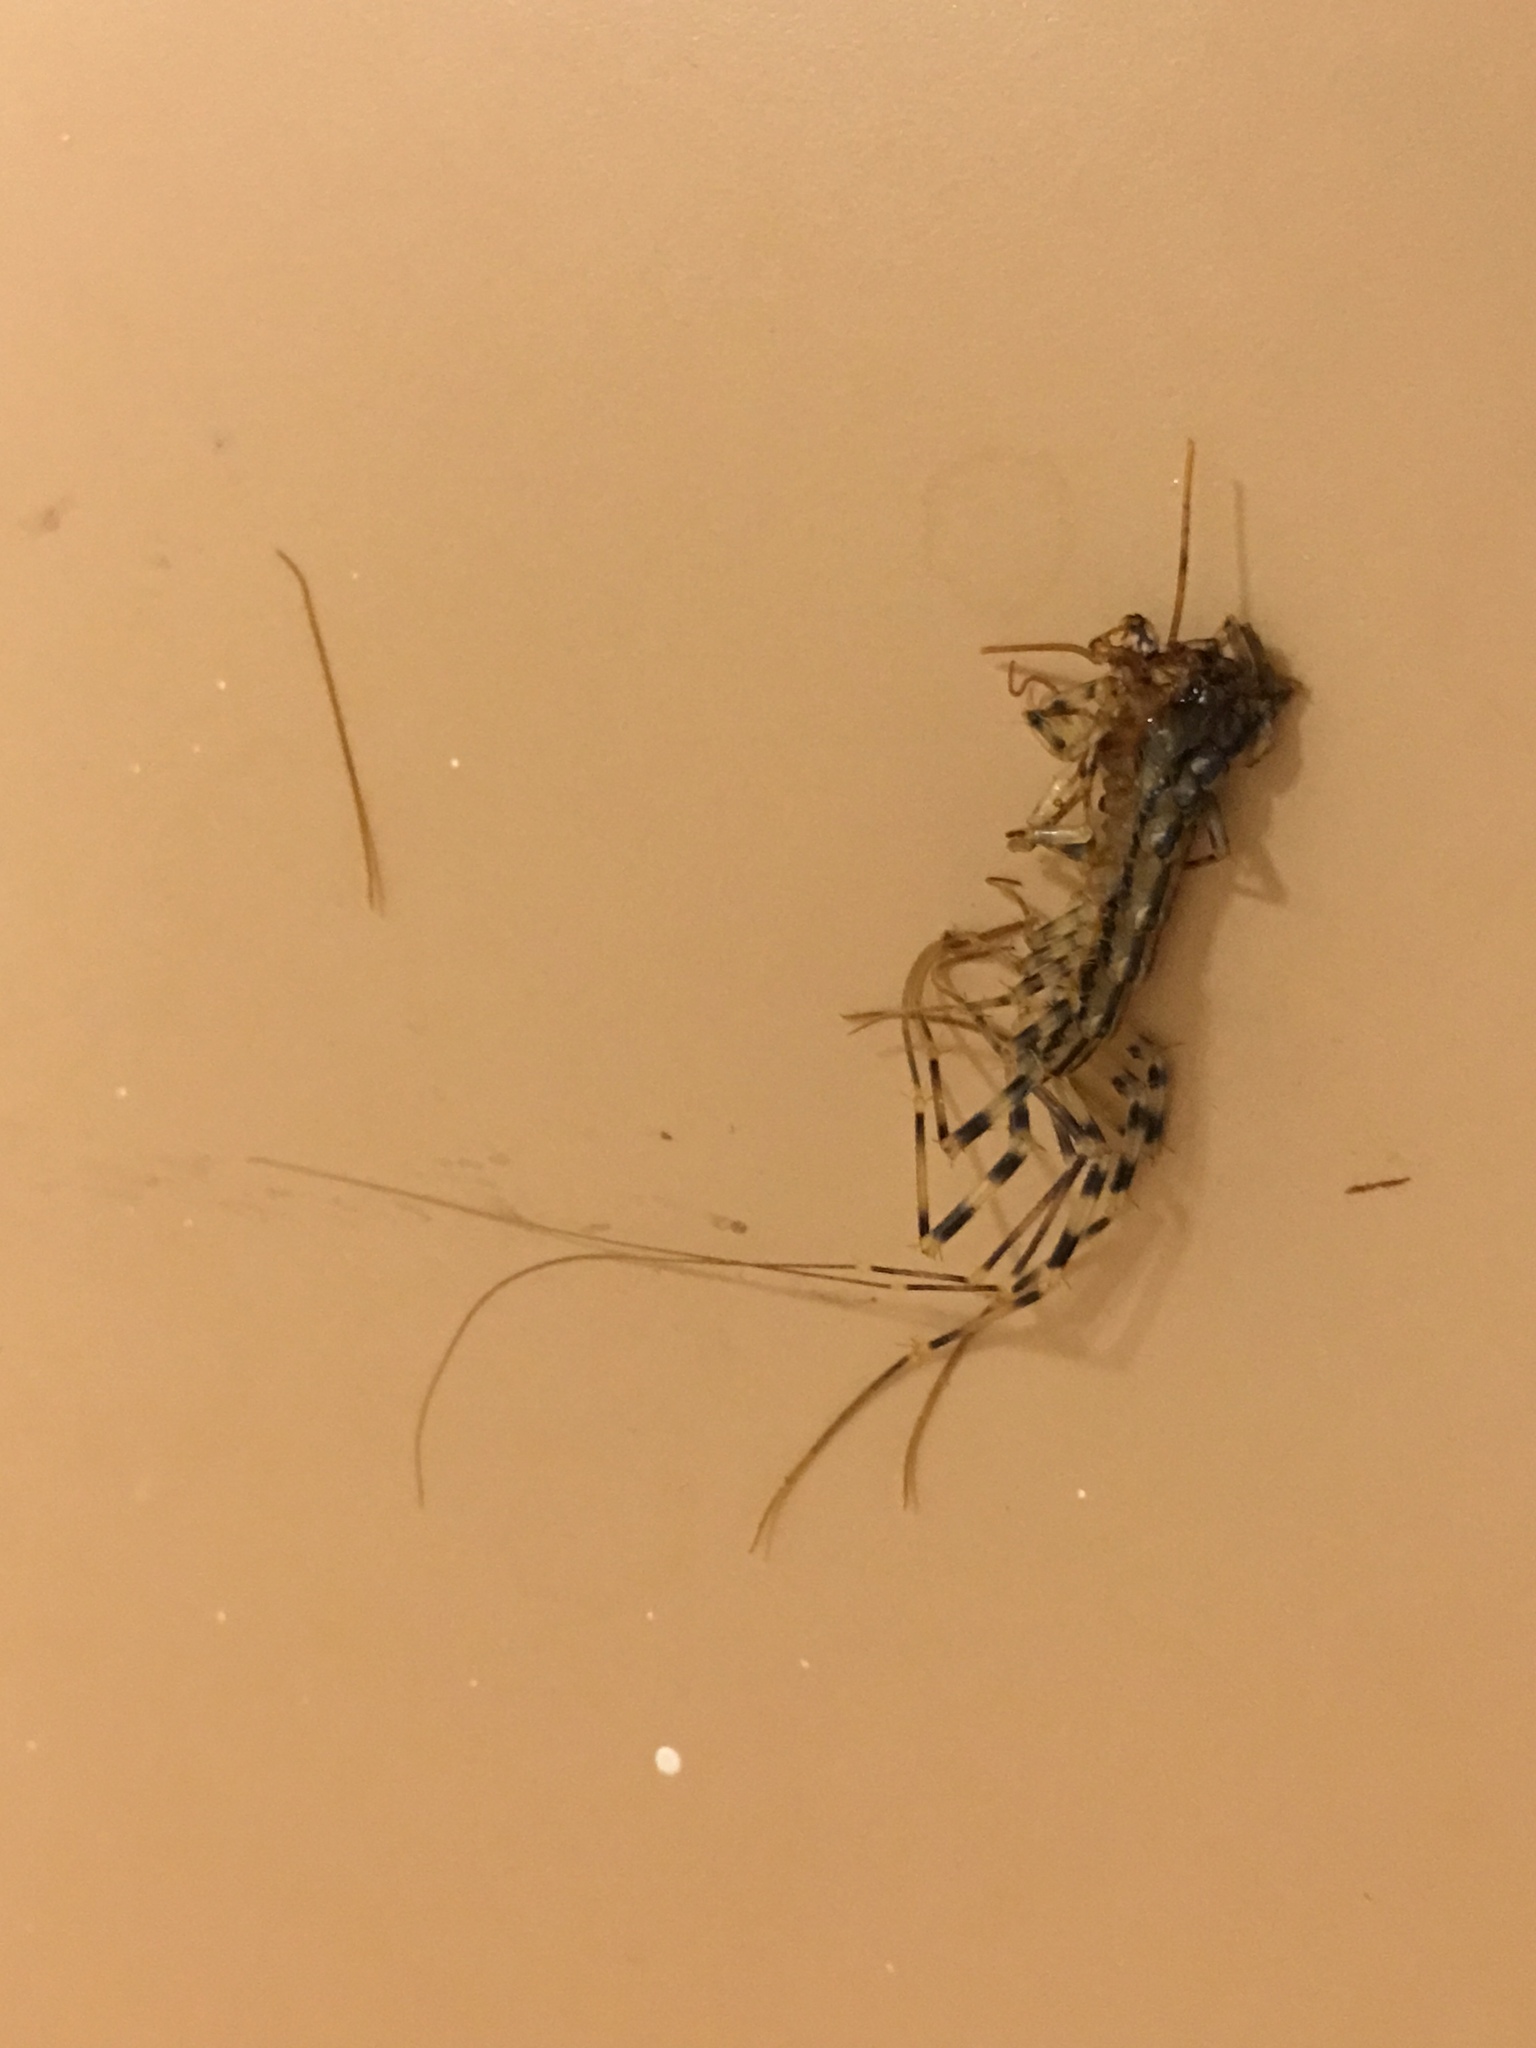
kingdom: Animalia
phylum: Arthropoda
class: Chilopoda
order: Scutigeromorpha
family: Scutigeridae
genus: Scutigera
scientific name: Scutigera coleoptrata
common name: House centipede
